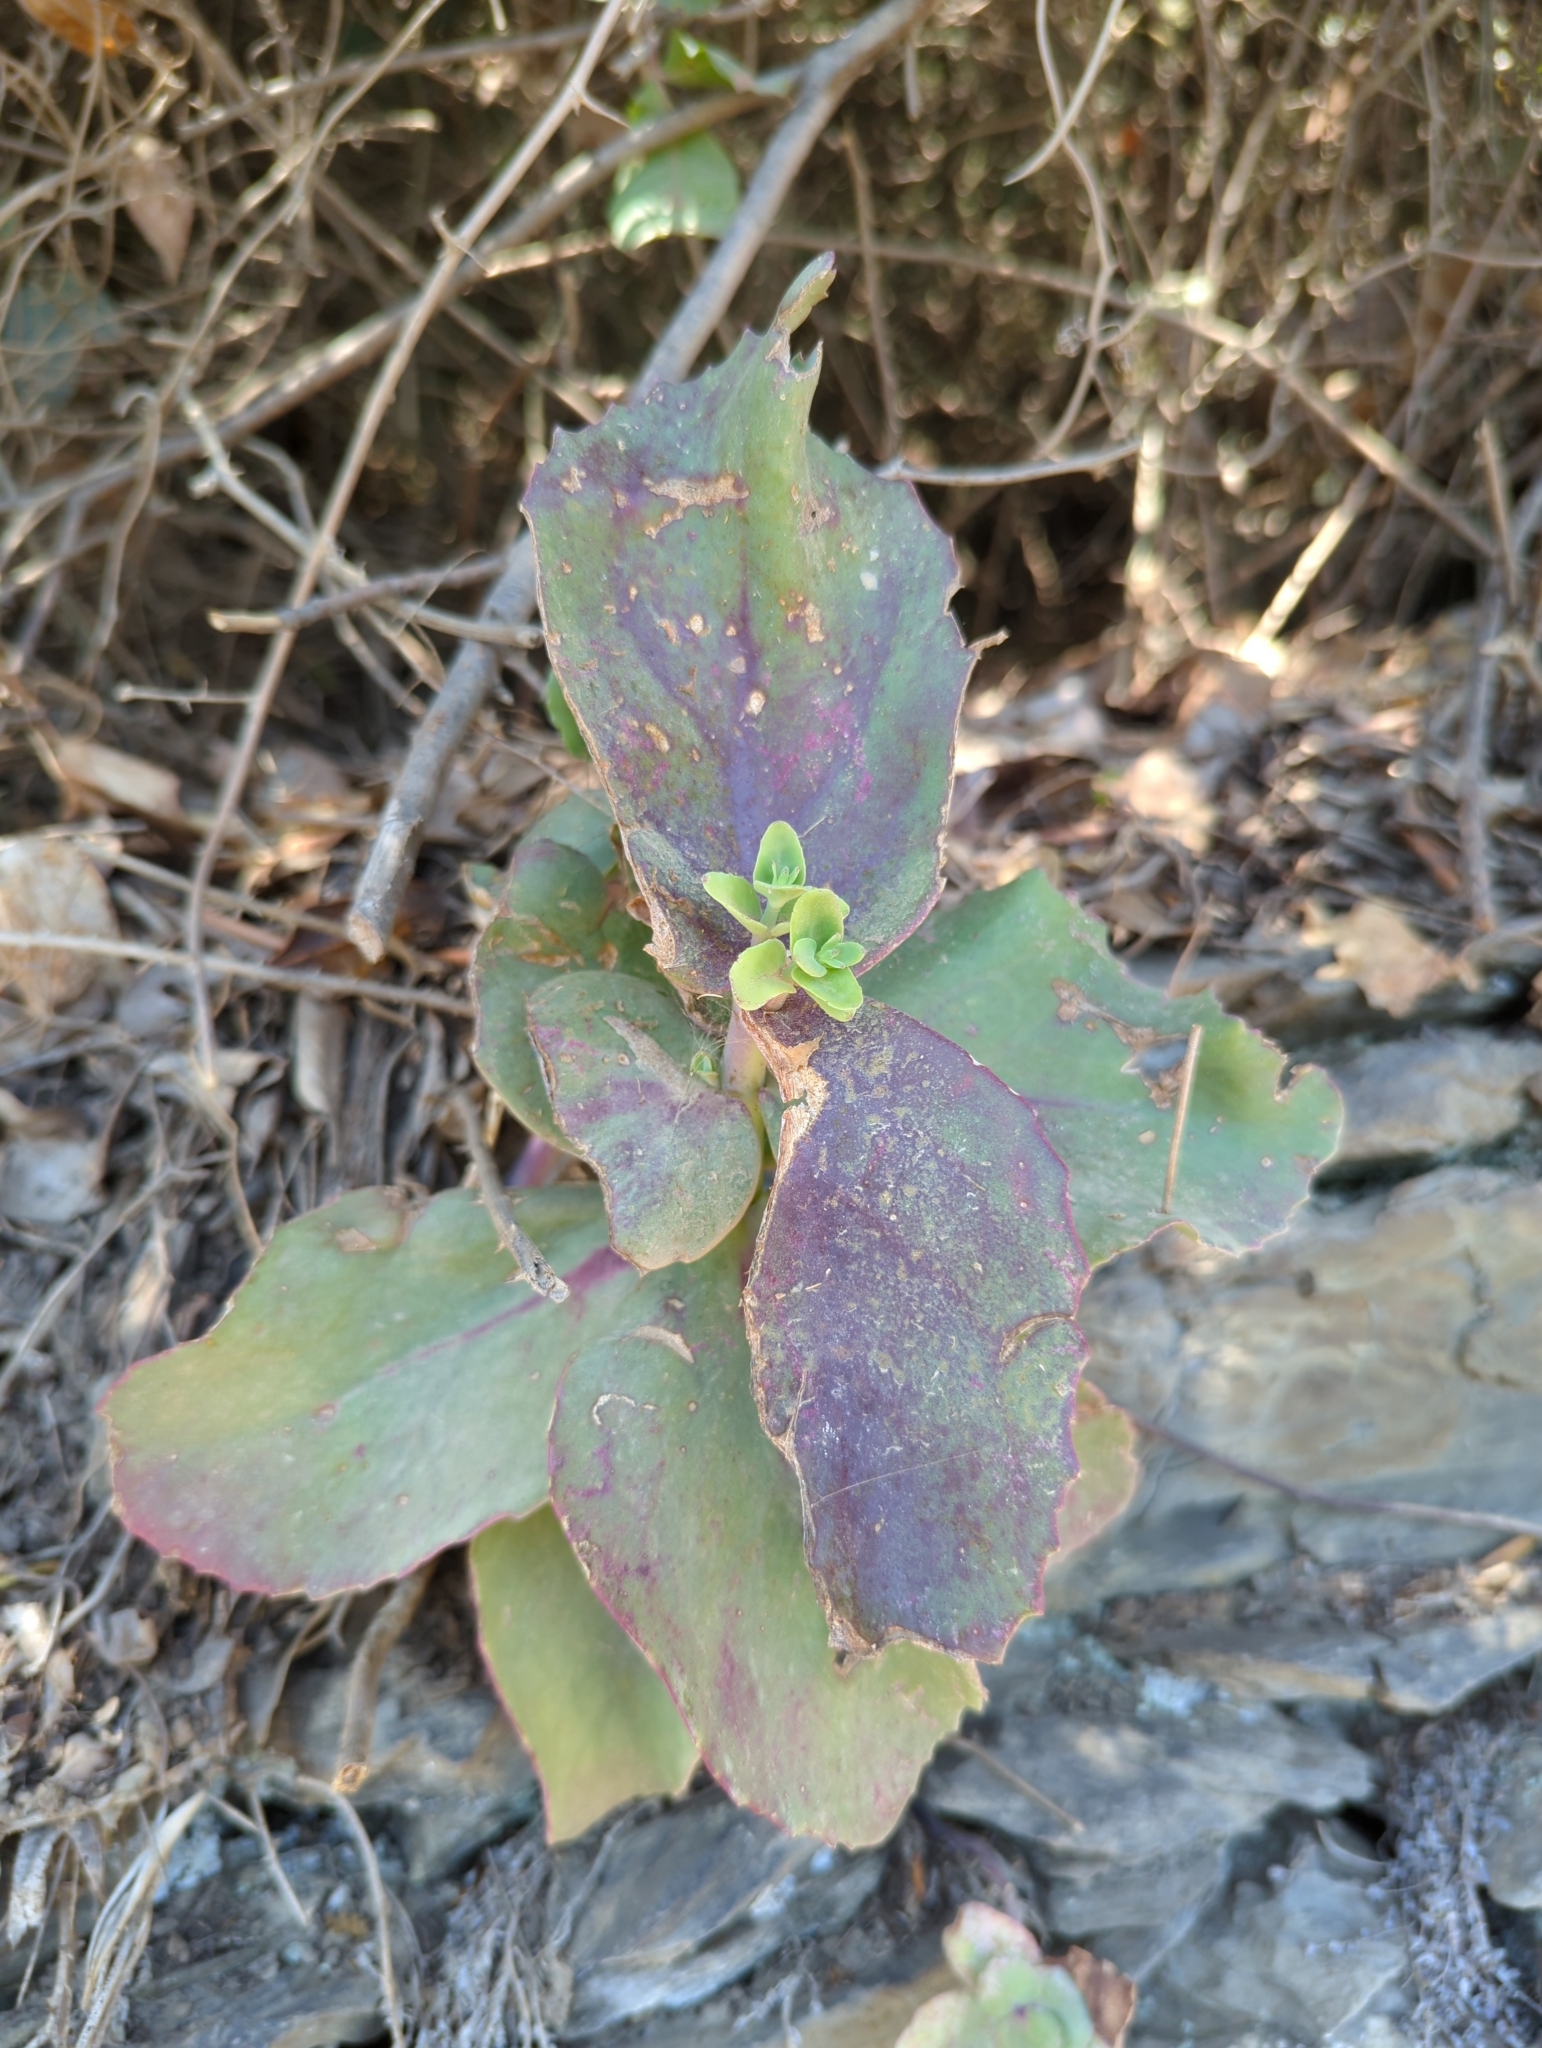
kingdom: Plantae
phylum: Tracheophyta
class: Magnoliopsida
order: Saxifragales
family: Crassulaceae
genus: Hylotelephium
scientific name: Hylotelephium maximum
